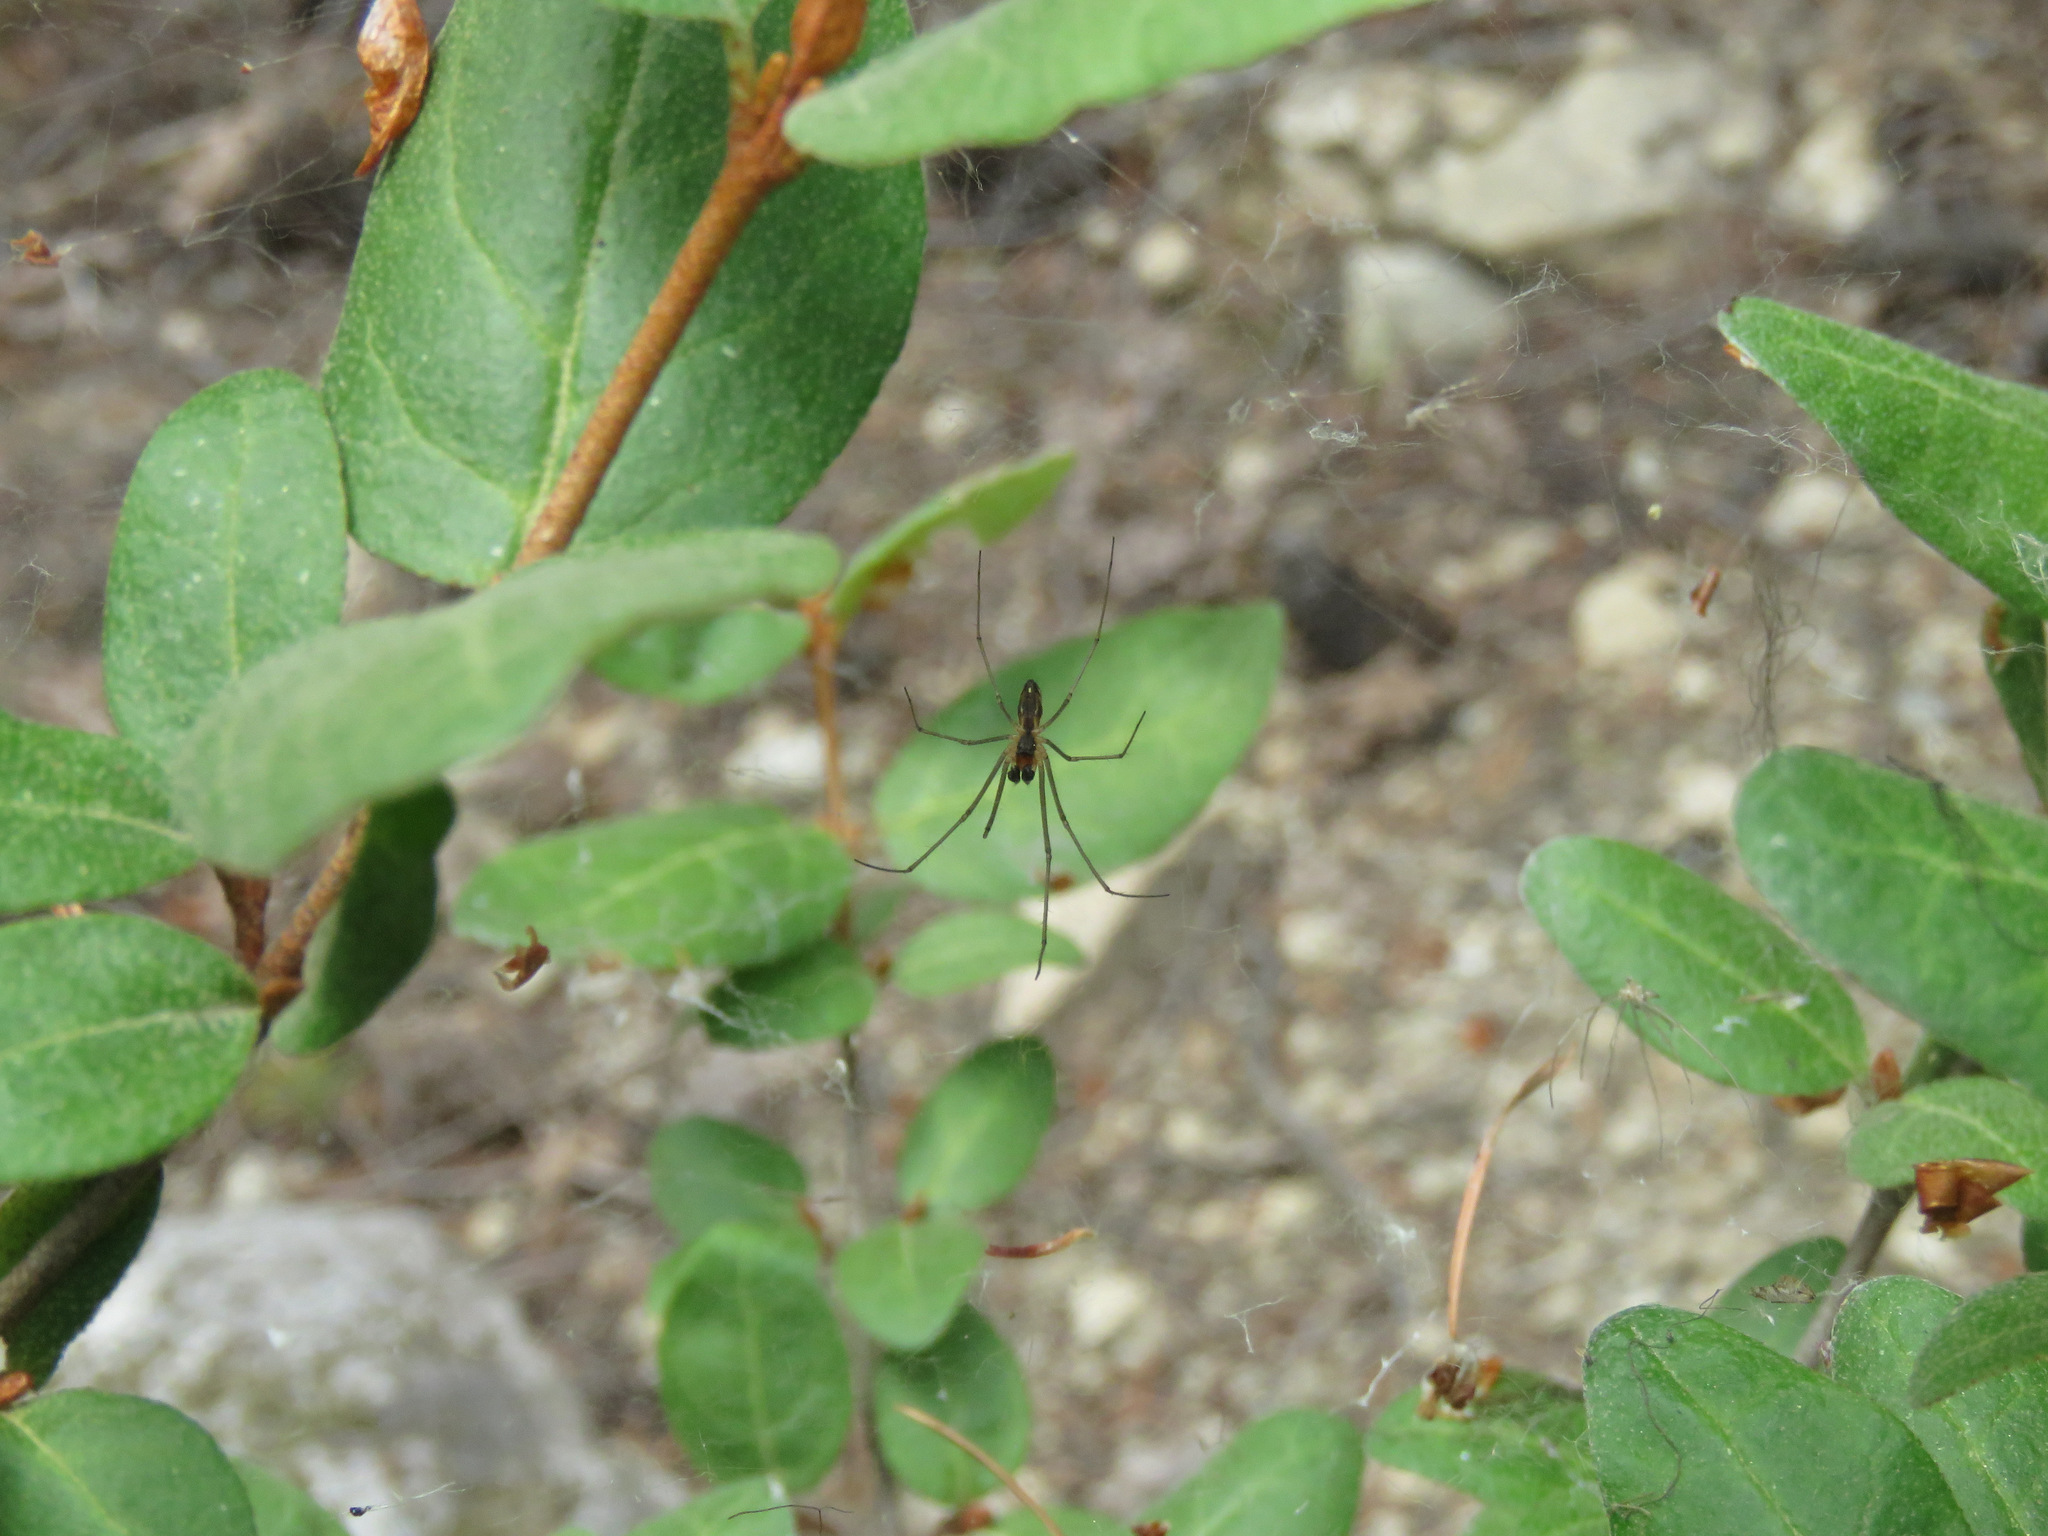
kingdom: Animalia
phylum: Arthropoda
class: Arachnida
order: Araneae
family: Linyphiidae
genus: Neriene
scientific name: Neriene litigiosa
